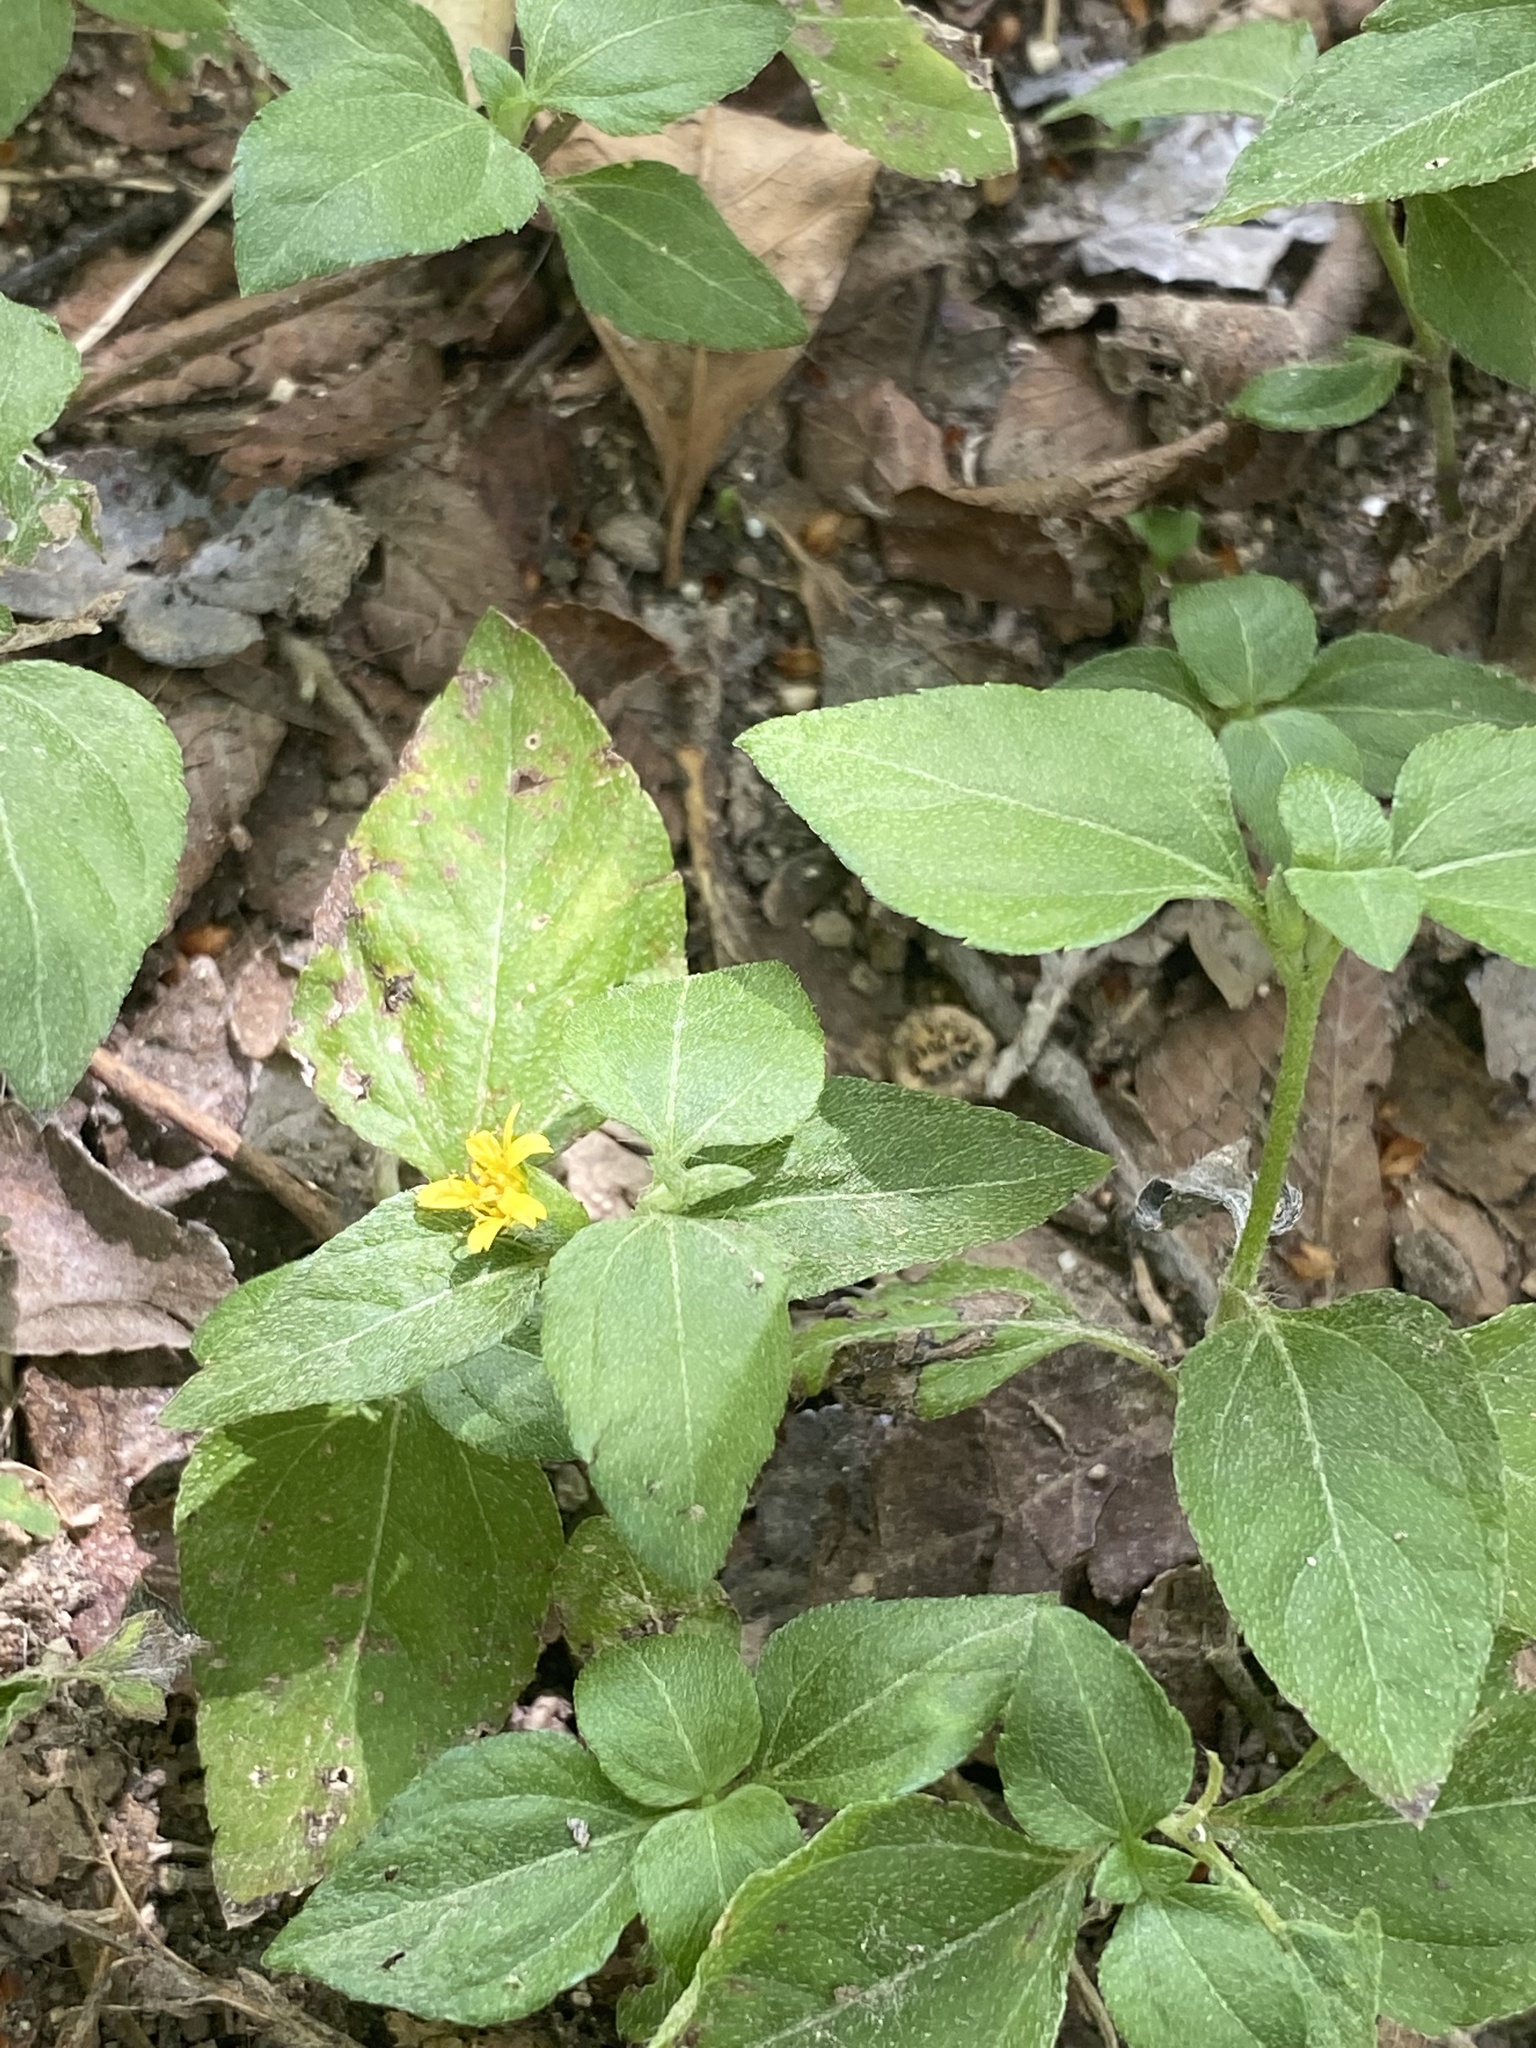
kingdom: Plantae
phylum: Tracheophyta
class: Magnoliopsida
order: Asterales
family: Asteraceae
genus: Calyptocarpus
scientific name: Calyptocarpus vialis
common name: Straggler daisy
